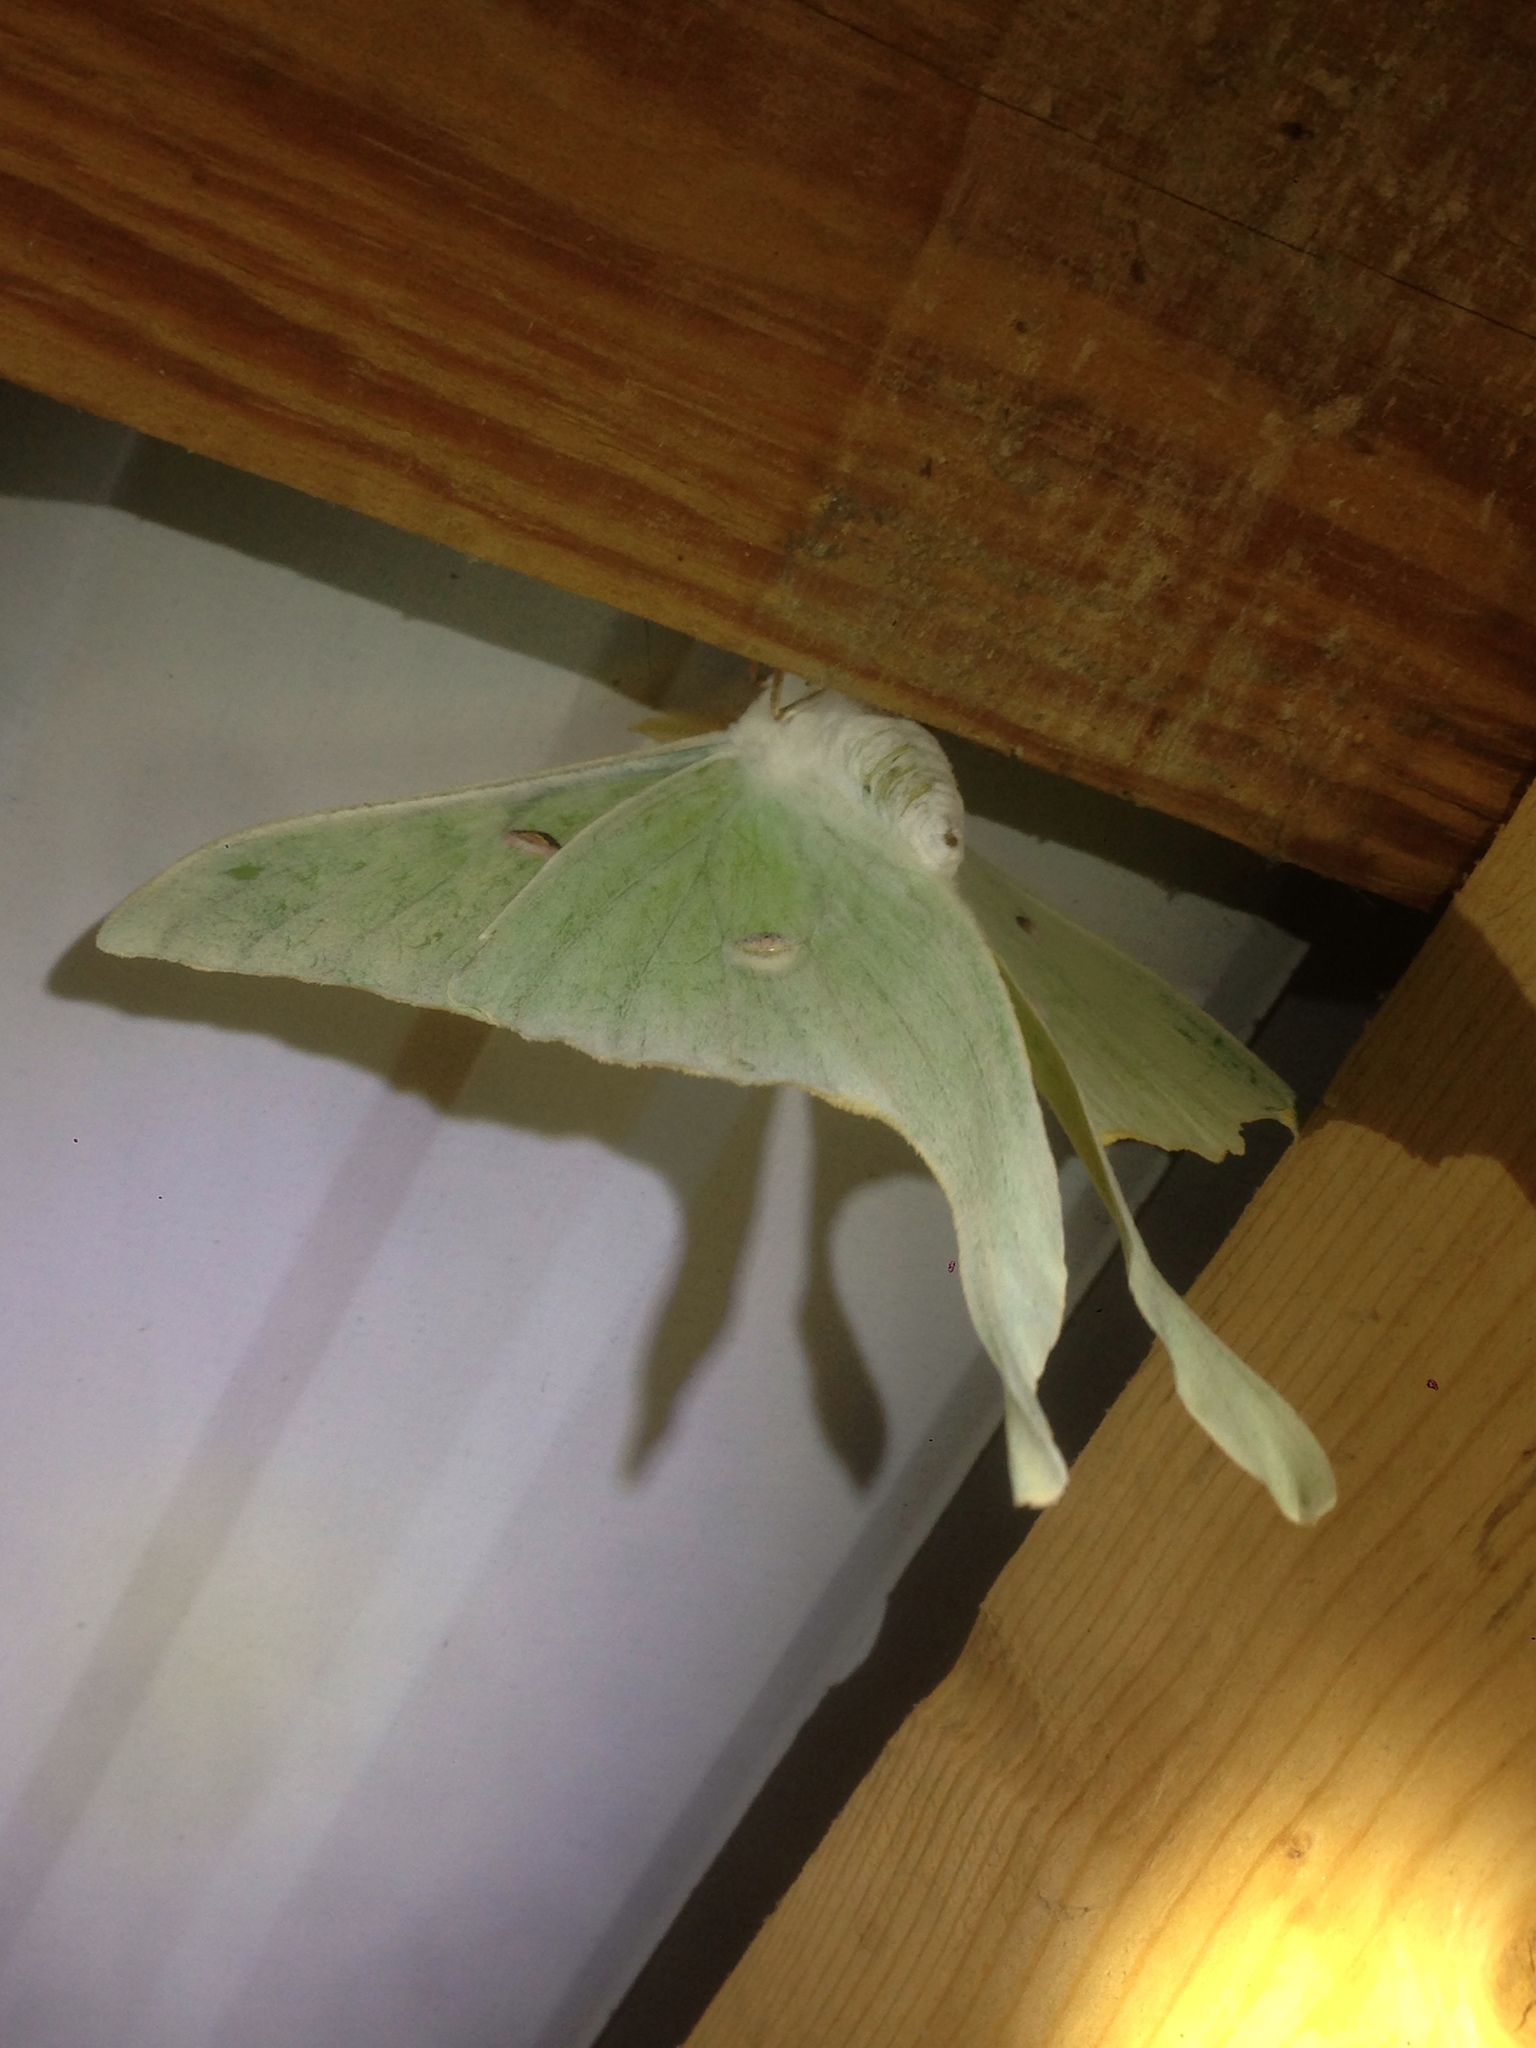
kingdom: Animalia
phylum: Arthropoda
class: Insecta
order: Lepidoptera
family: Saturniidae
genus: Actias
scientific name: Actias luna
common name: Luna moth
